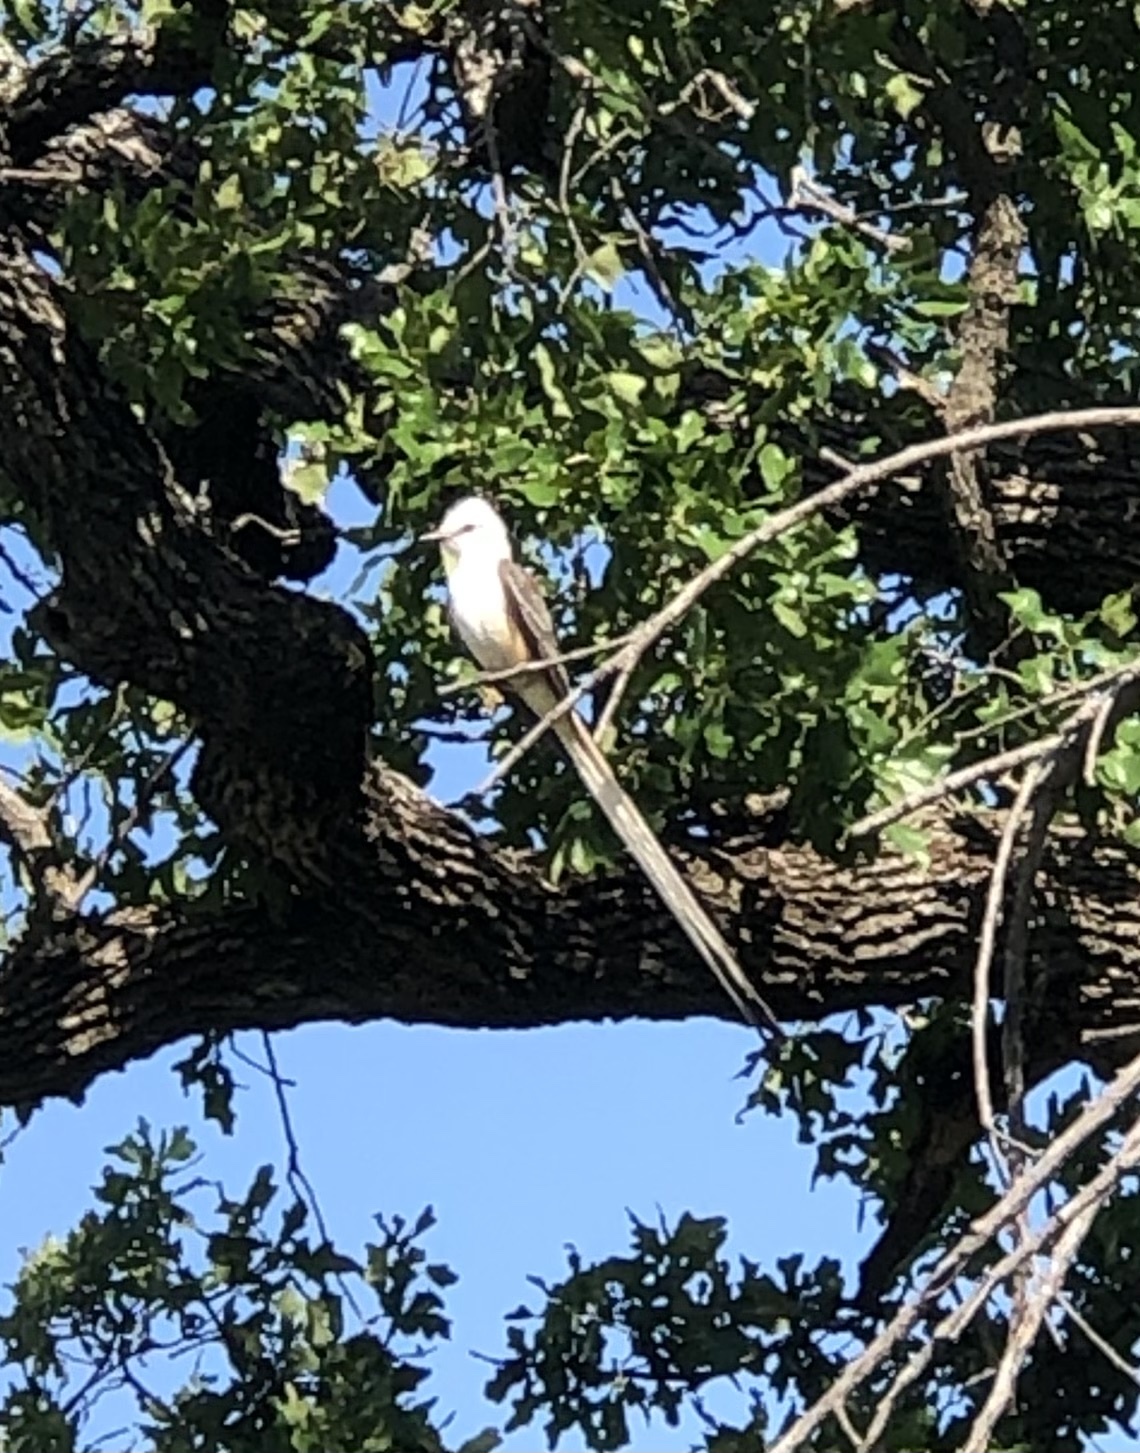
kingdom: Animalia
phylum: Chordata
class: Aves
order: Passeriformes
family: Tyrannidae
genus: Tyrannus
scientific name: Tyrannus forficatus
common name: Scissor-tailed flycatcher
